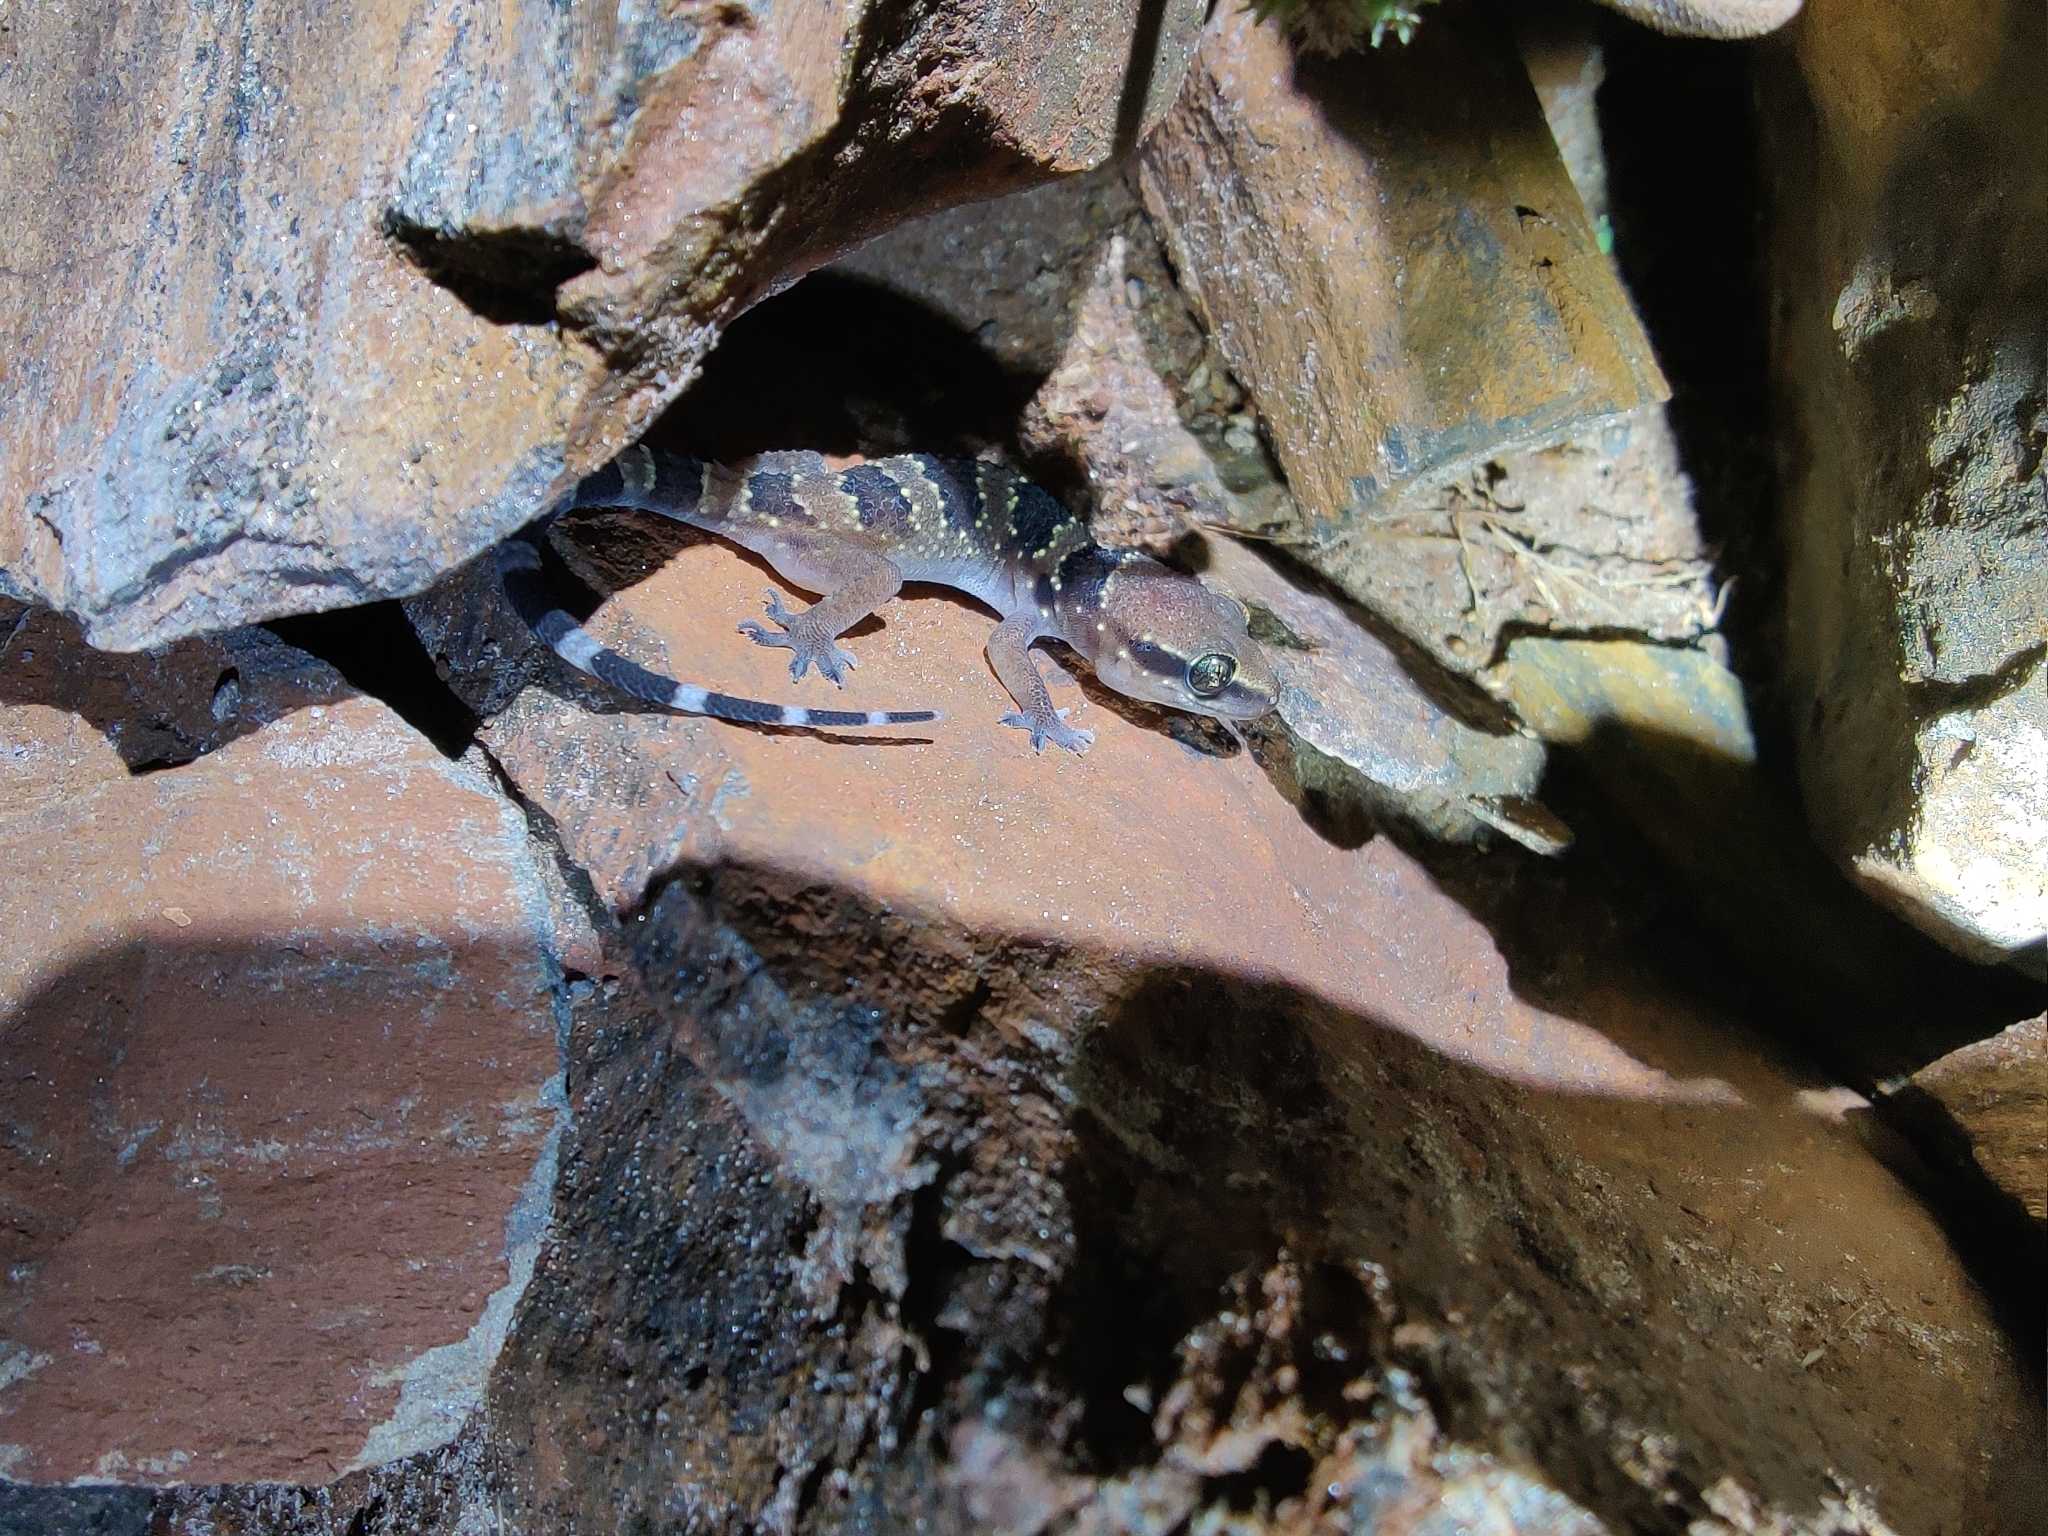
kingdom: Animalia
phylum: Chordata
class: Squamata
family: Gekkonidae
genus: Hemidactylus
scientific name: Hemidactylus whitakeri
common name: Whitaker’s termite hill gecko
